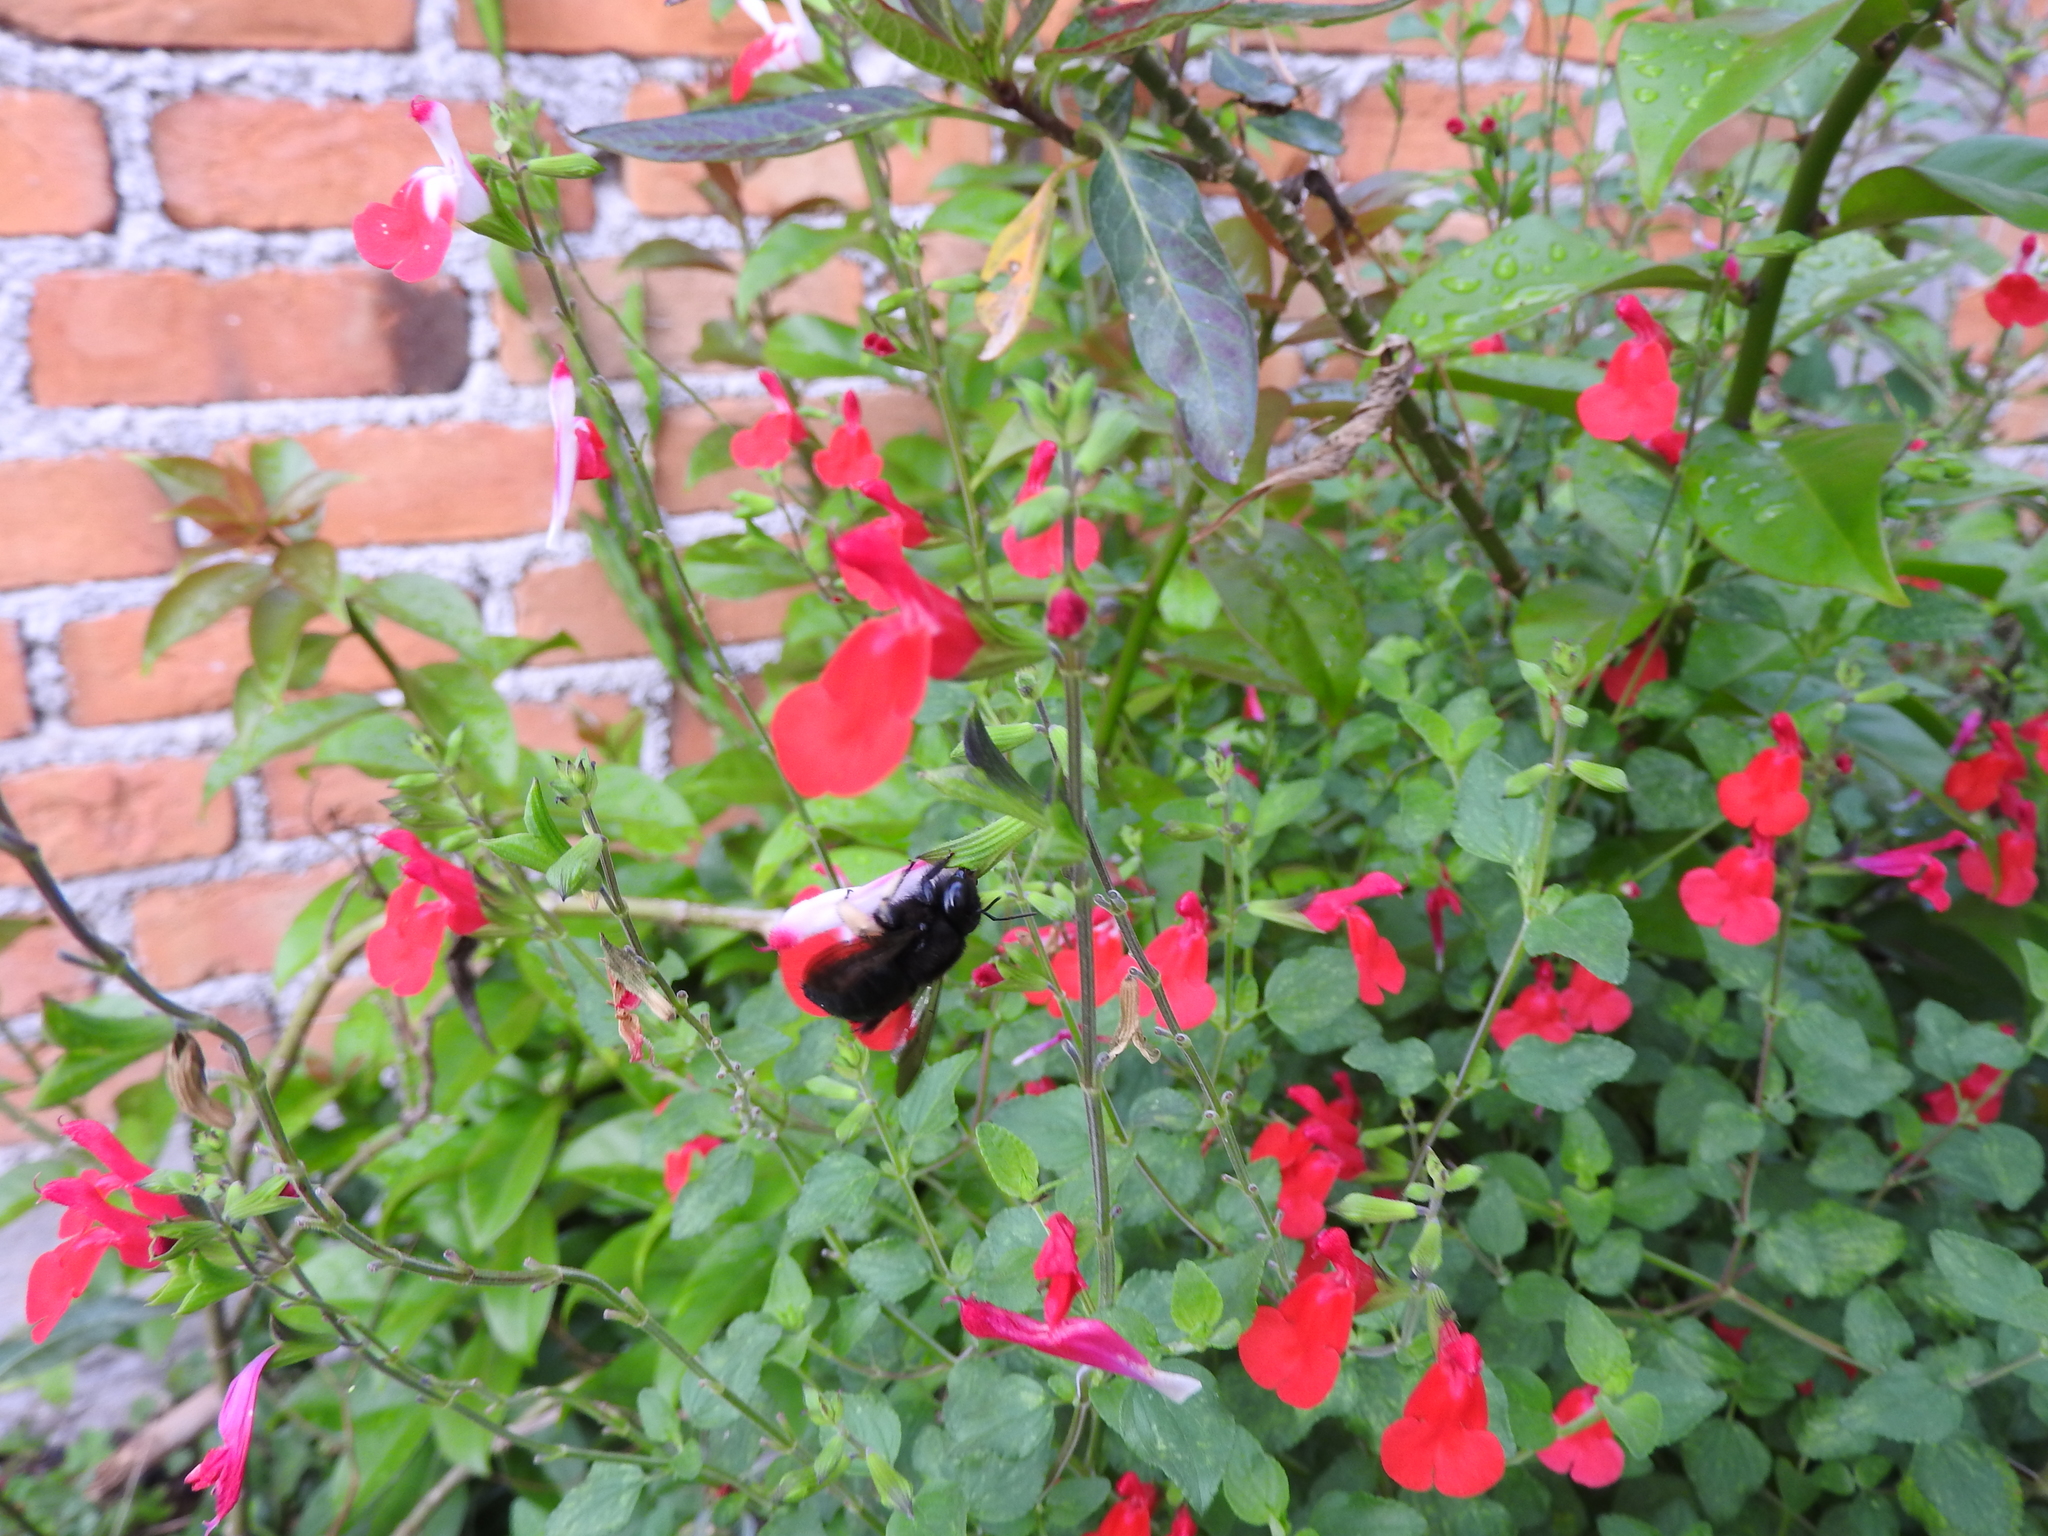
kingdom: Animalia
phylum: Arthropoda
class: Insecta
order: Hymenoptera
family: Apidae
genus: Xylocopa
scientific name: Xylocopa tabaniformis
